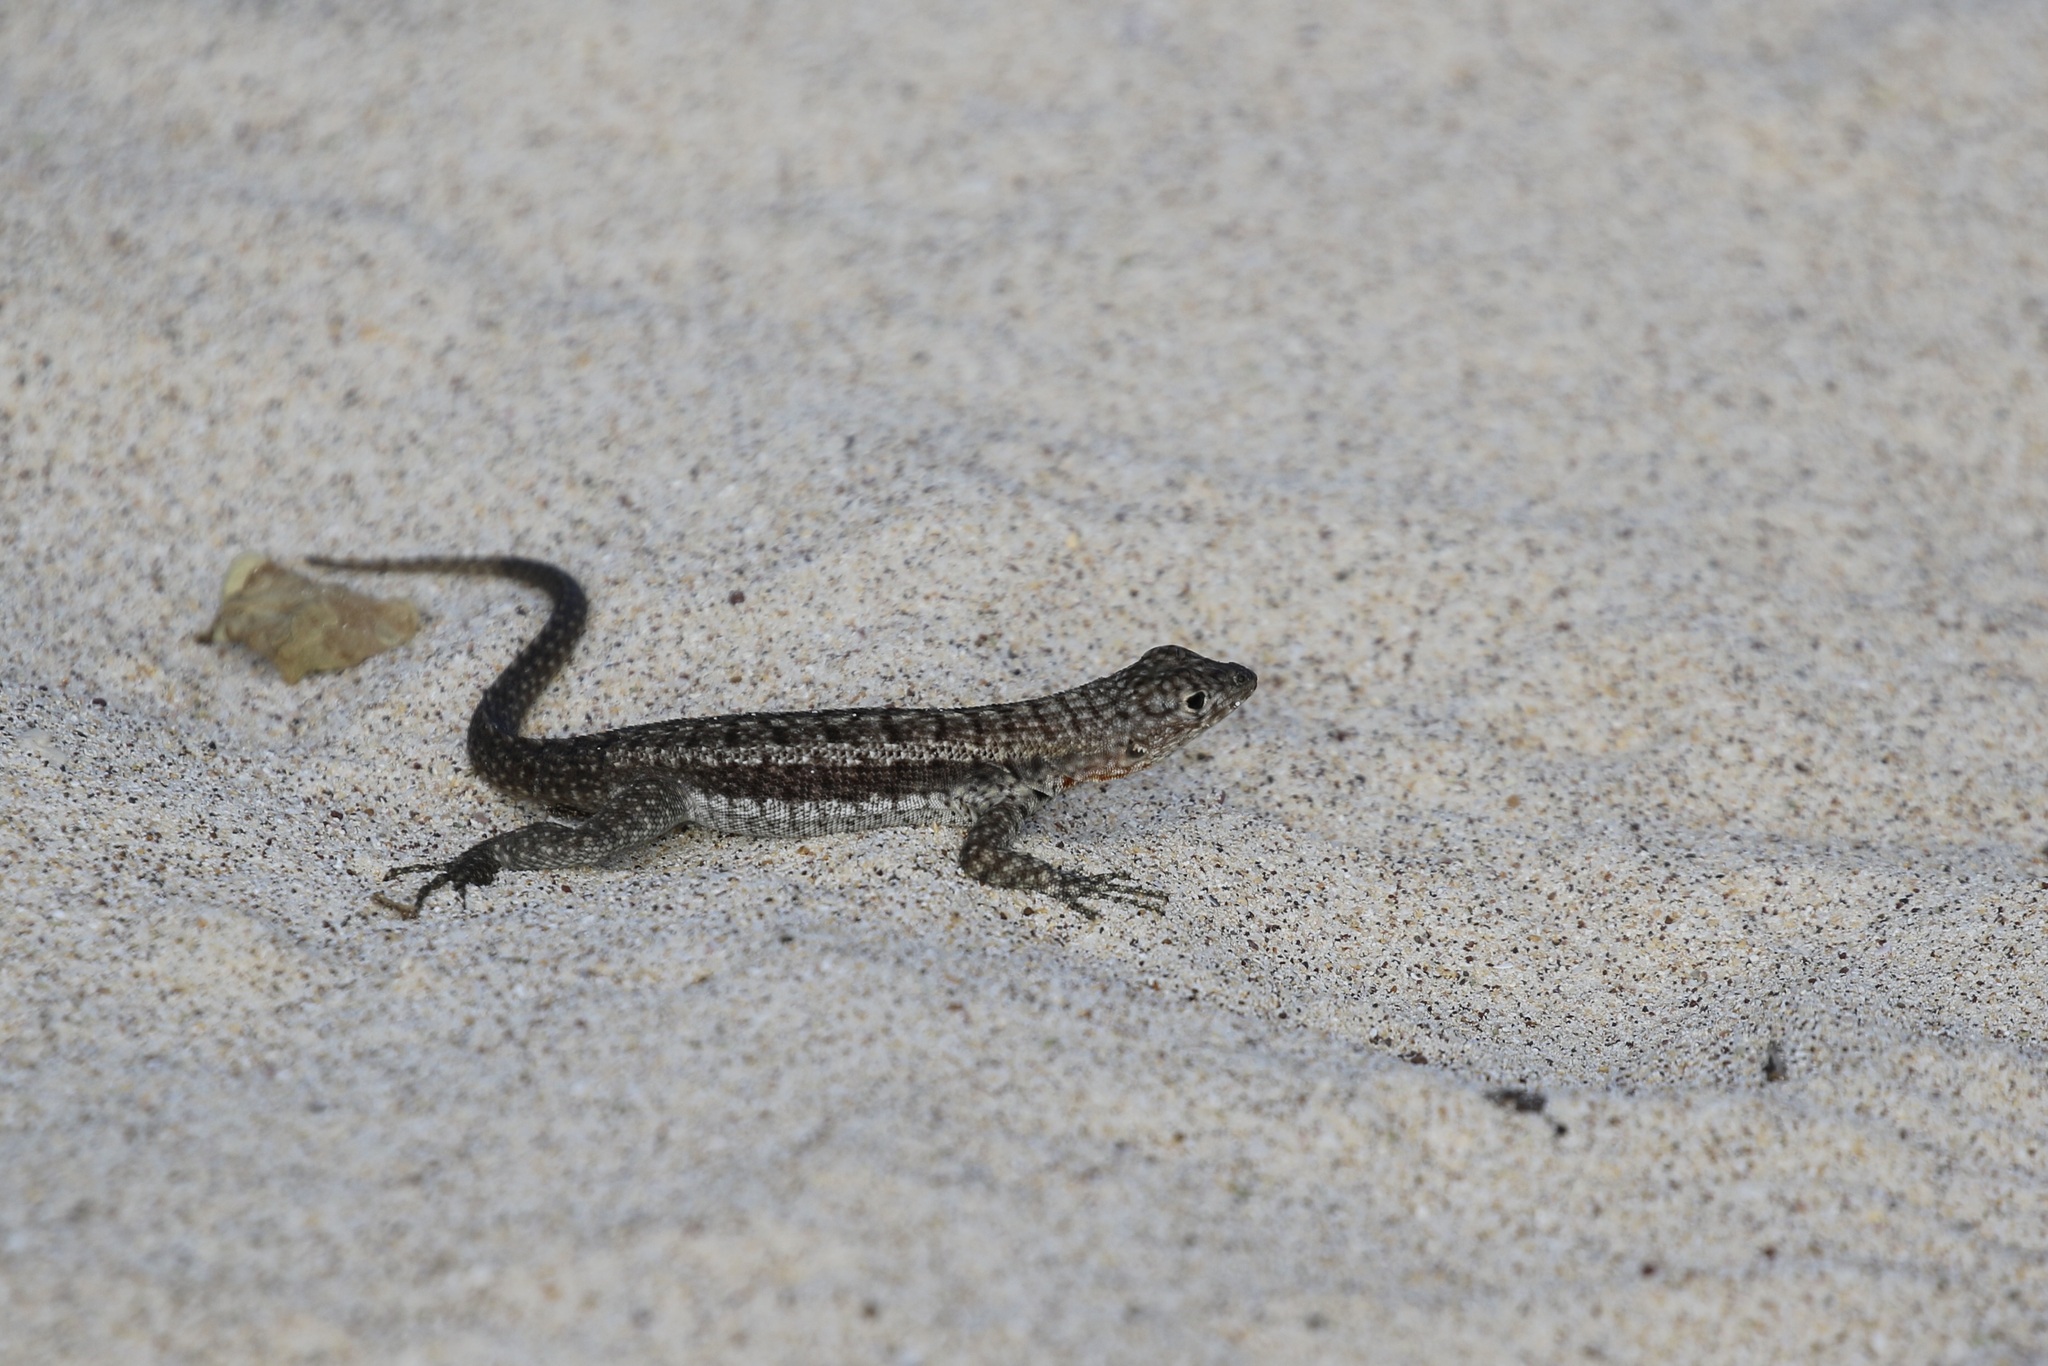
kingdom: Animalia
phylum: Chordata
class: Squamata
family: Tropiduridae
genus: Microlophus
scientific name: Microlophus barringtonensis
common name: Galapagos lava lizard
